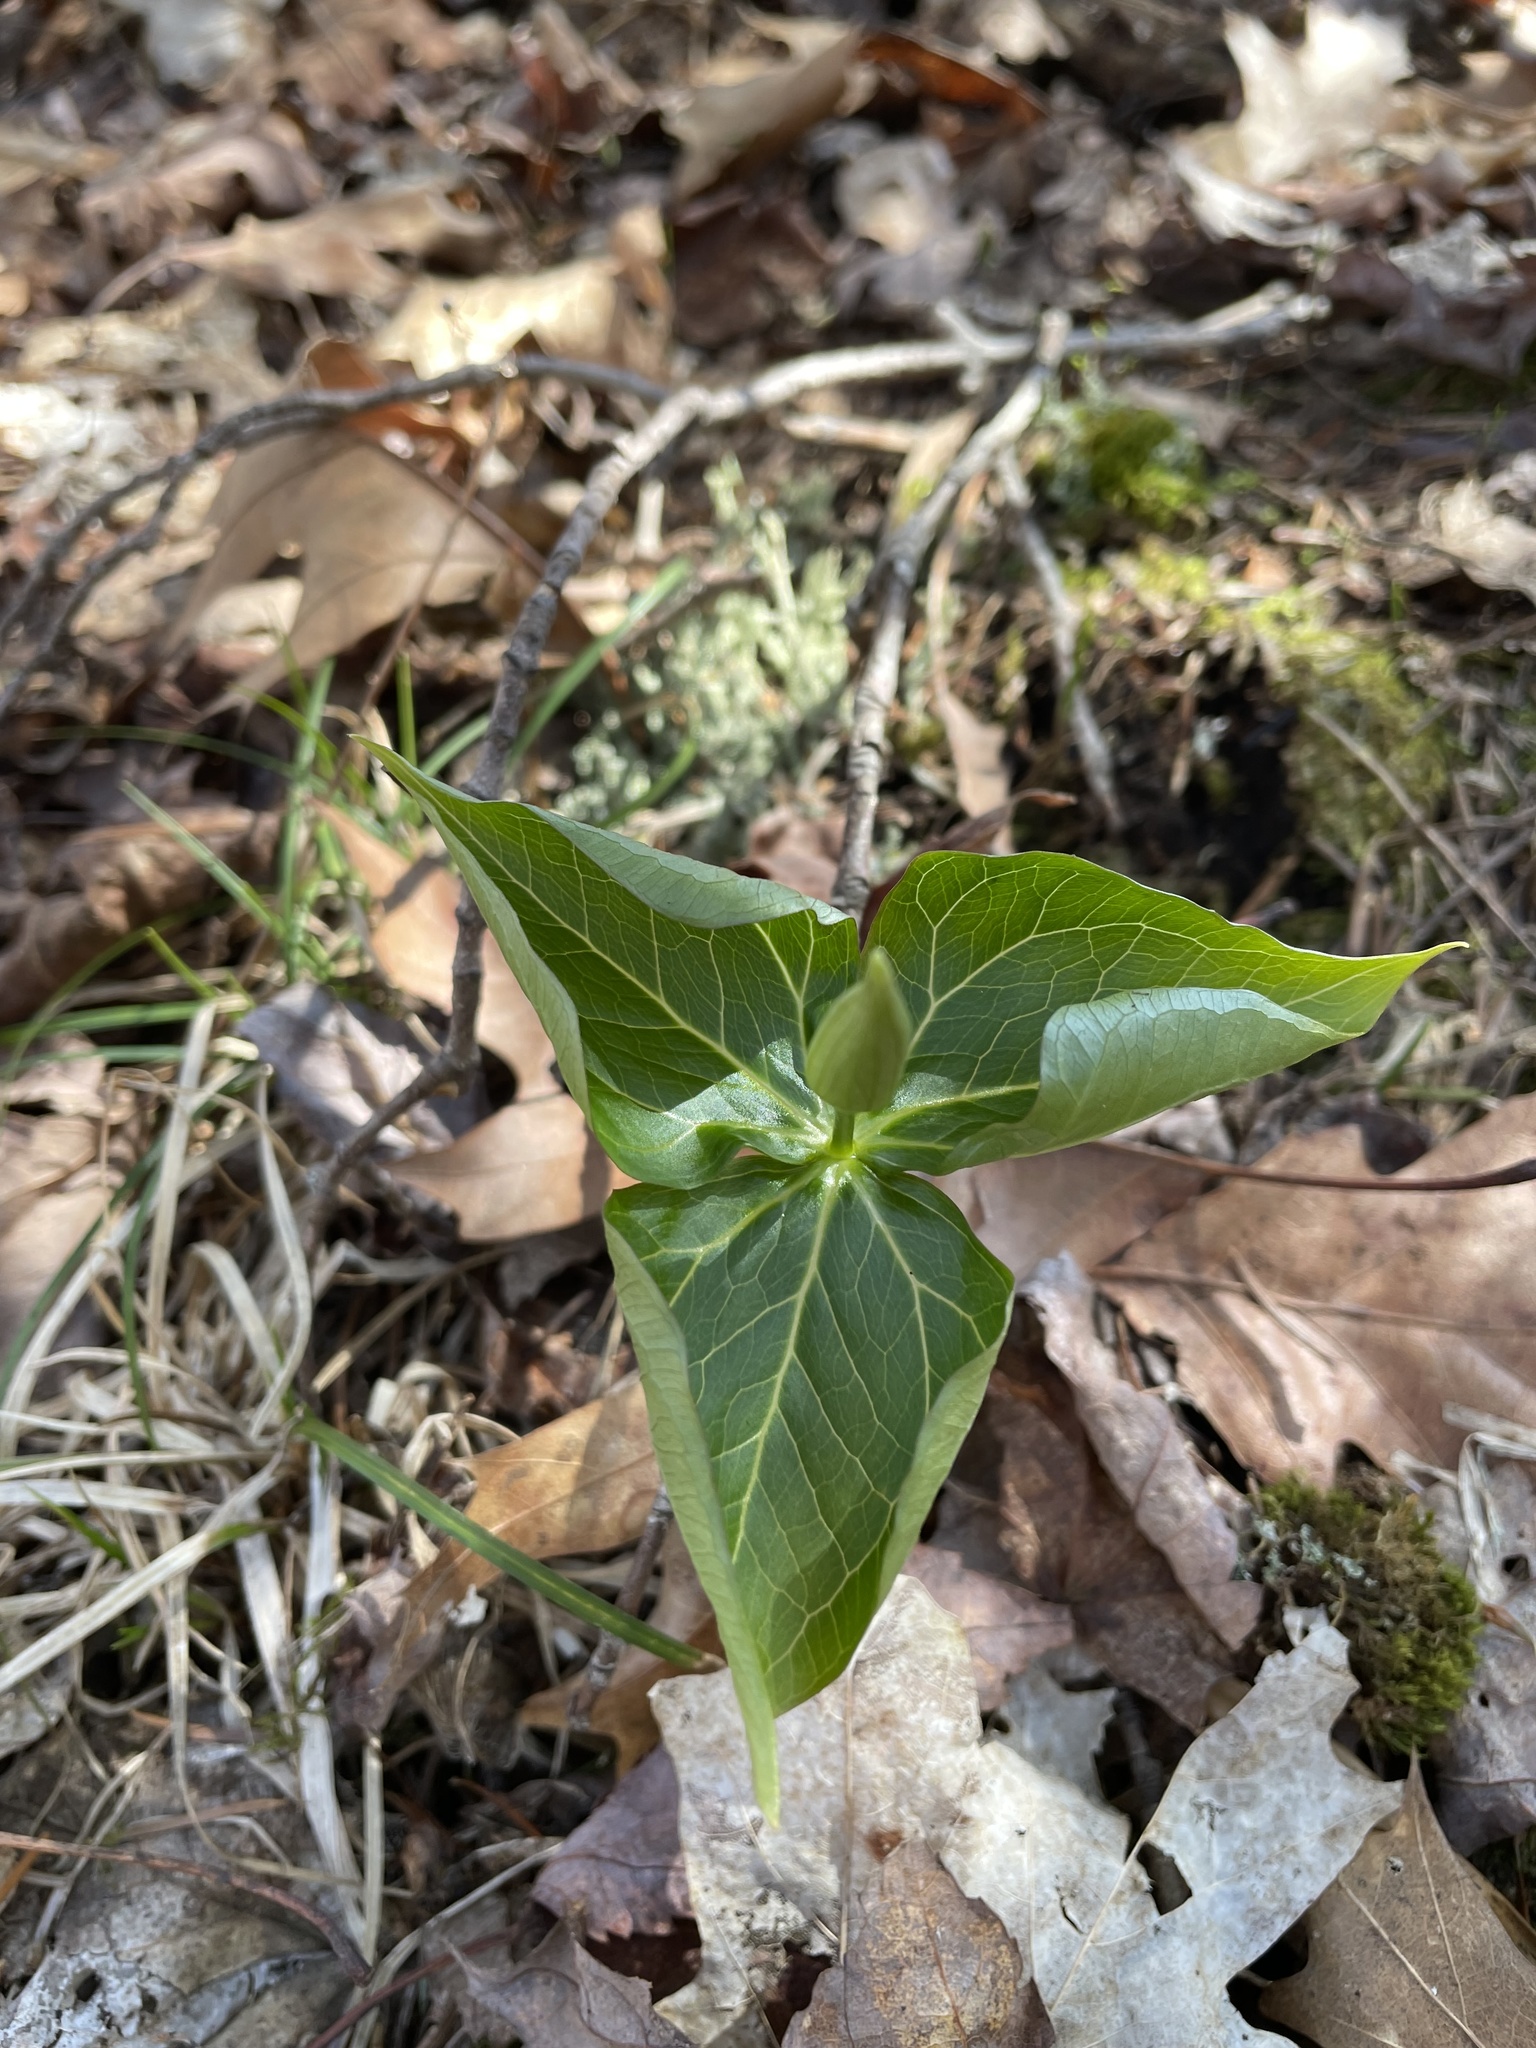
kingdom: Plantae
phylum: Tracheophyta
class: Liliopsida
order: Liliales
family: Melanthiaceae
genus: Trillium
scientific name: Trillium erectum
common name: Purple trillium
